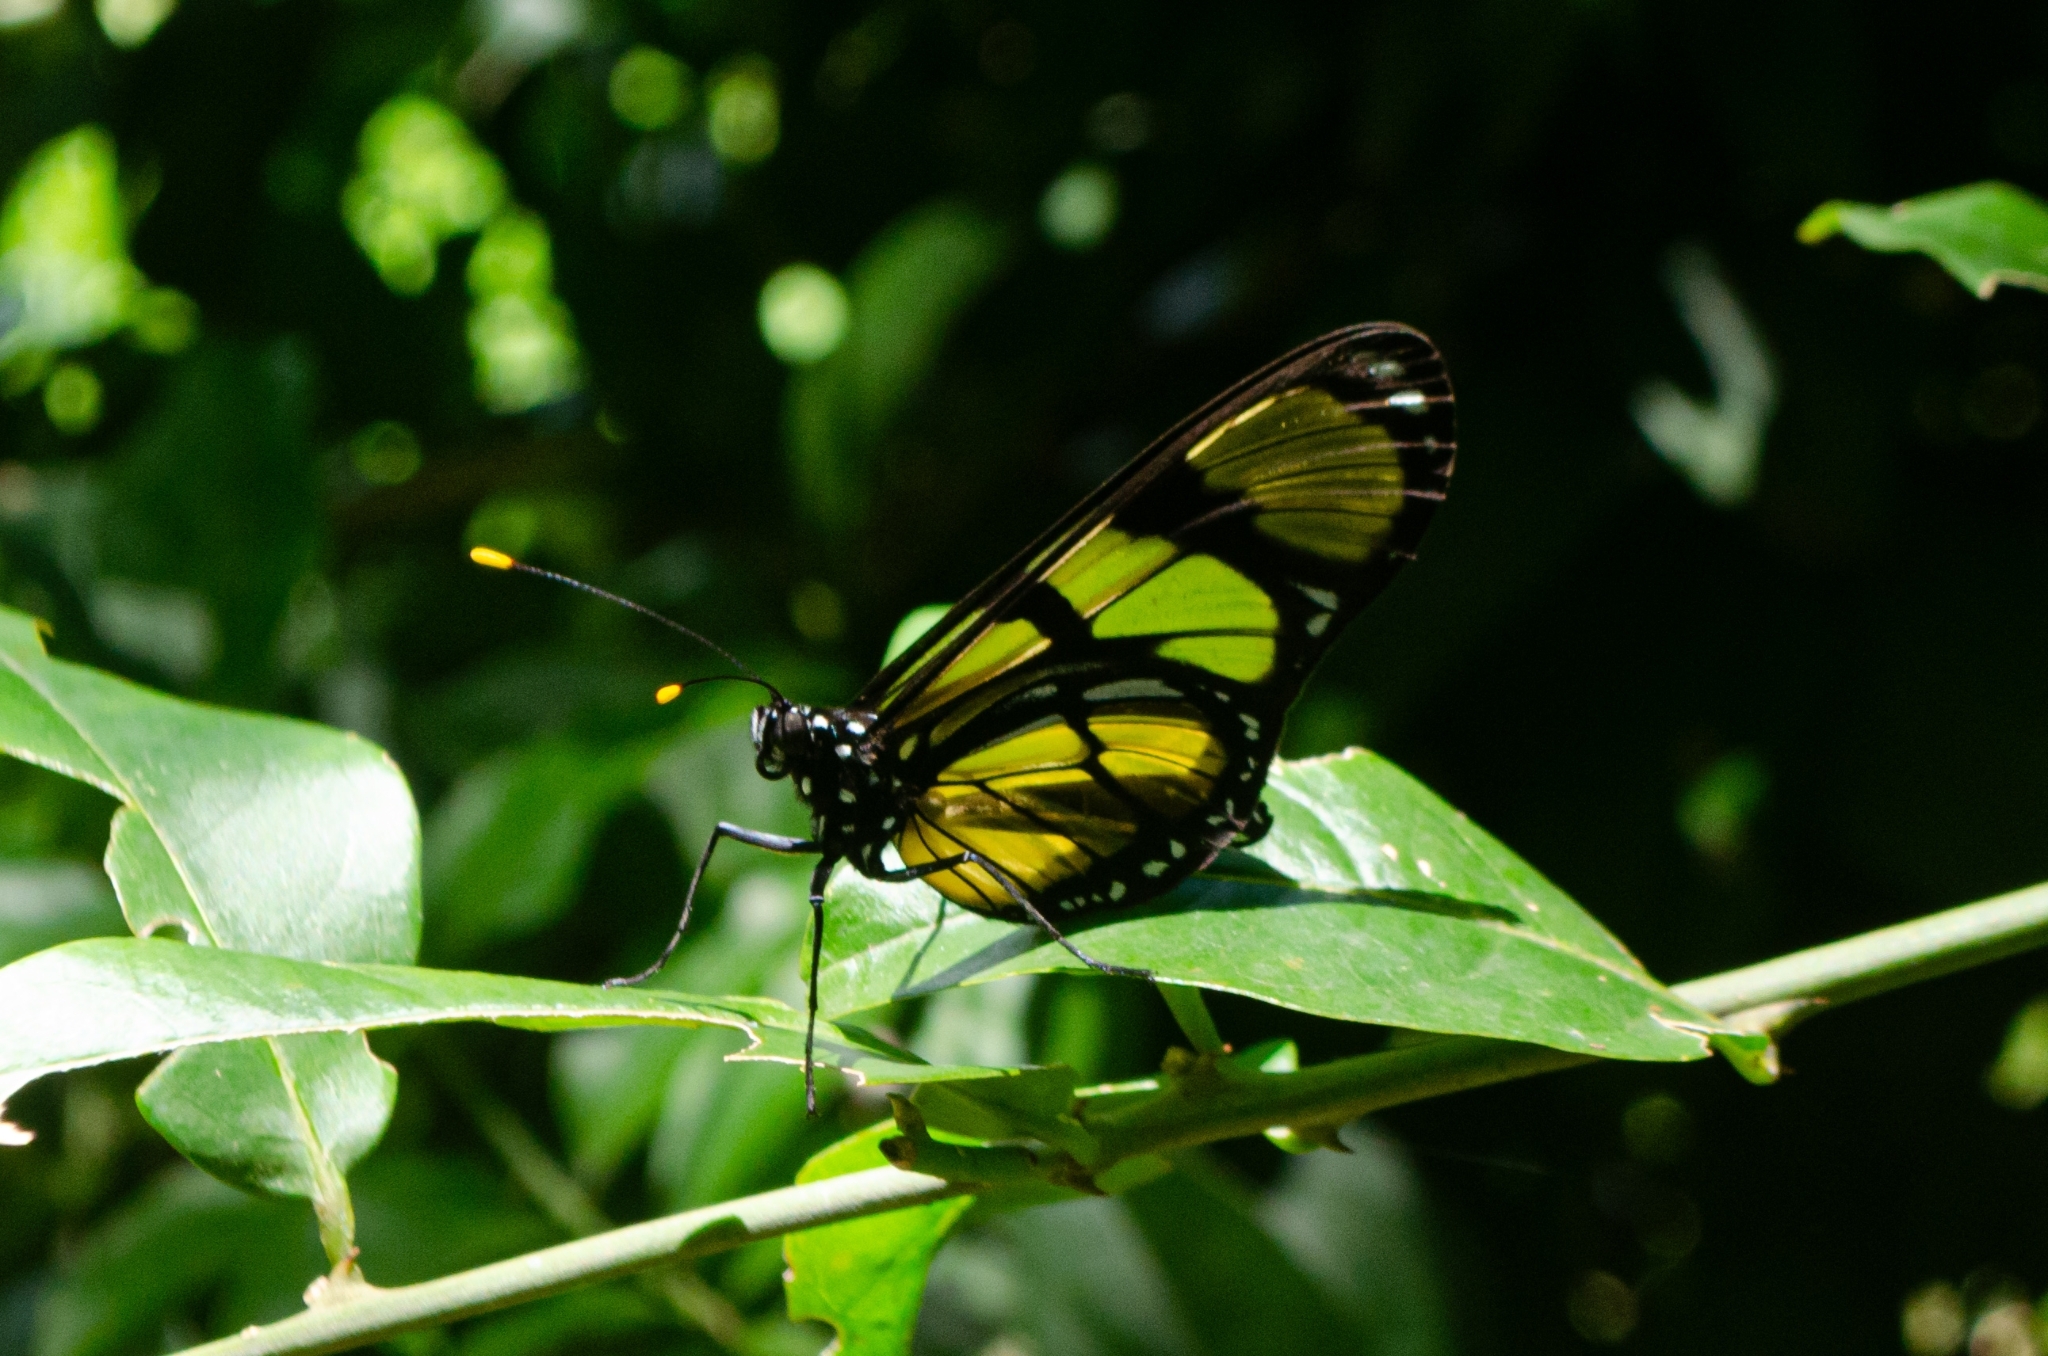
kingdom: Animalia
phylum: Arthropoda
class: Insecta
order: Lepidoptera
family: Nymphalidae
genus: Methona
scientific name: Methona themisto
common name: Themisto amberwing
